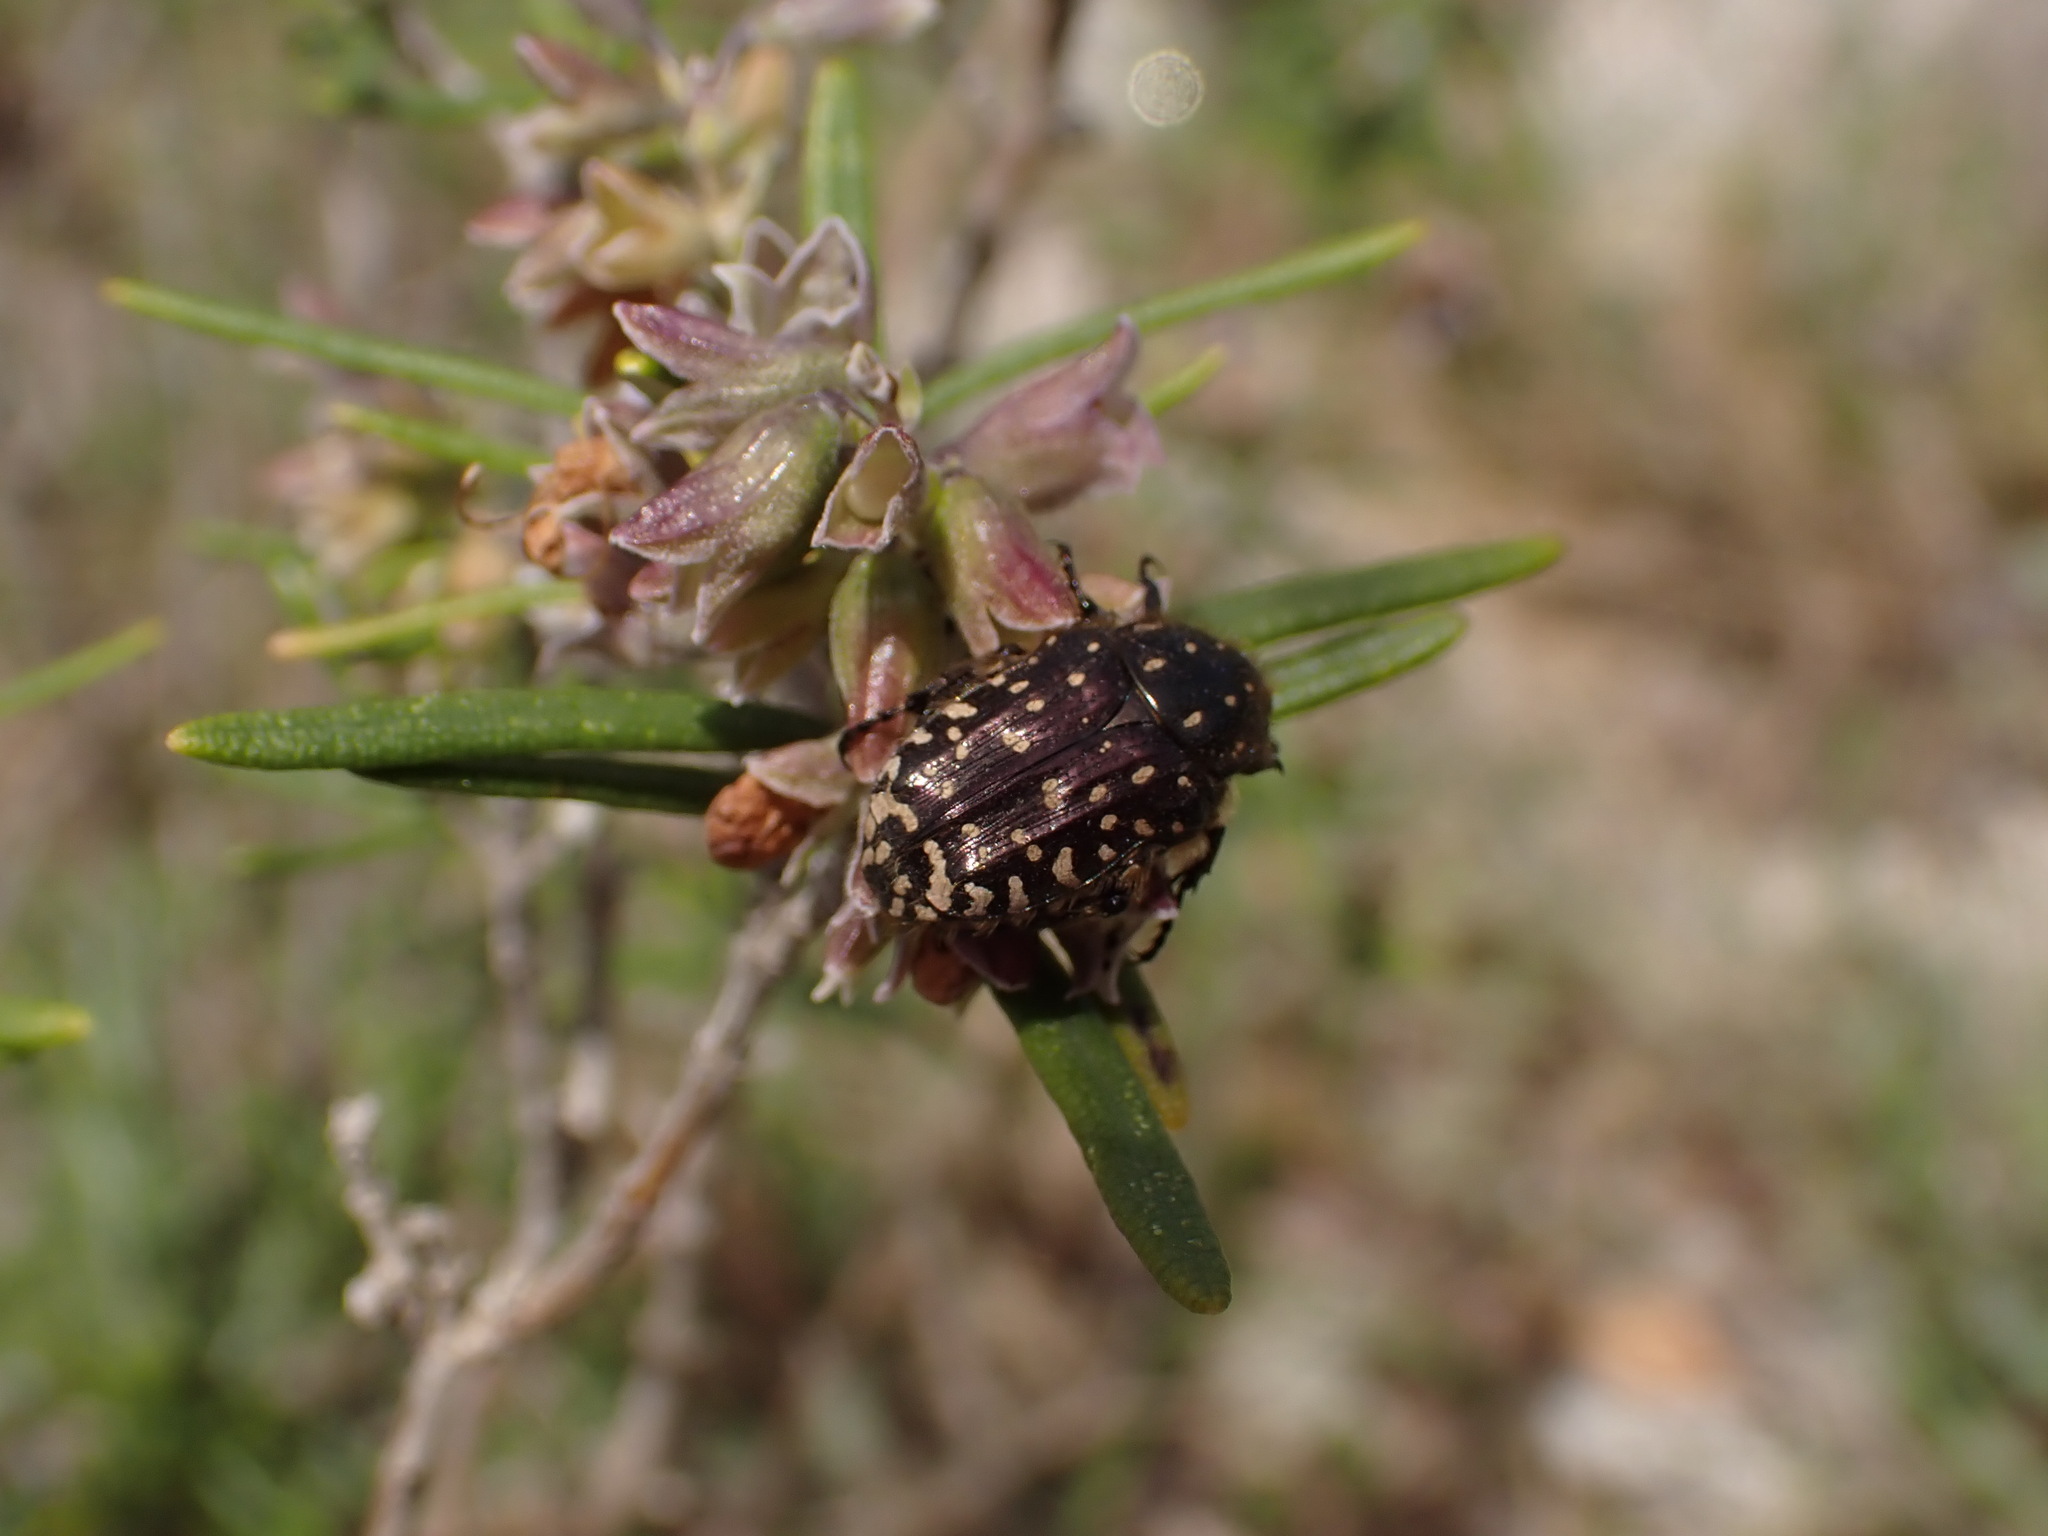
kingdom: Animalia
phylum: Arthropoda
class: Insecta
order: Coleoptera
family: Scarabaeidae
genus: Oxythyrea
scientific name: Oxythyrea funesta
